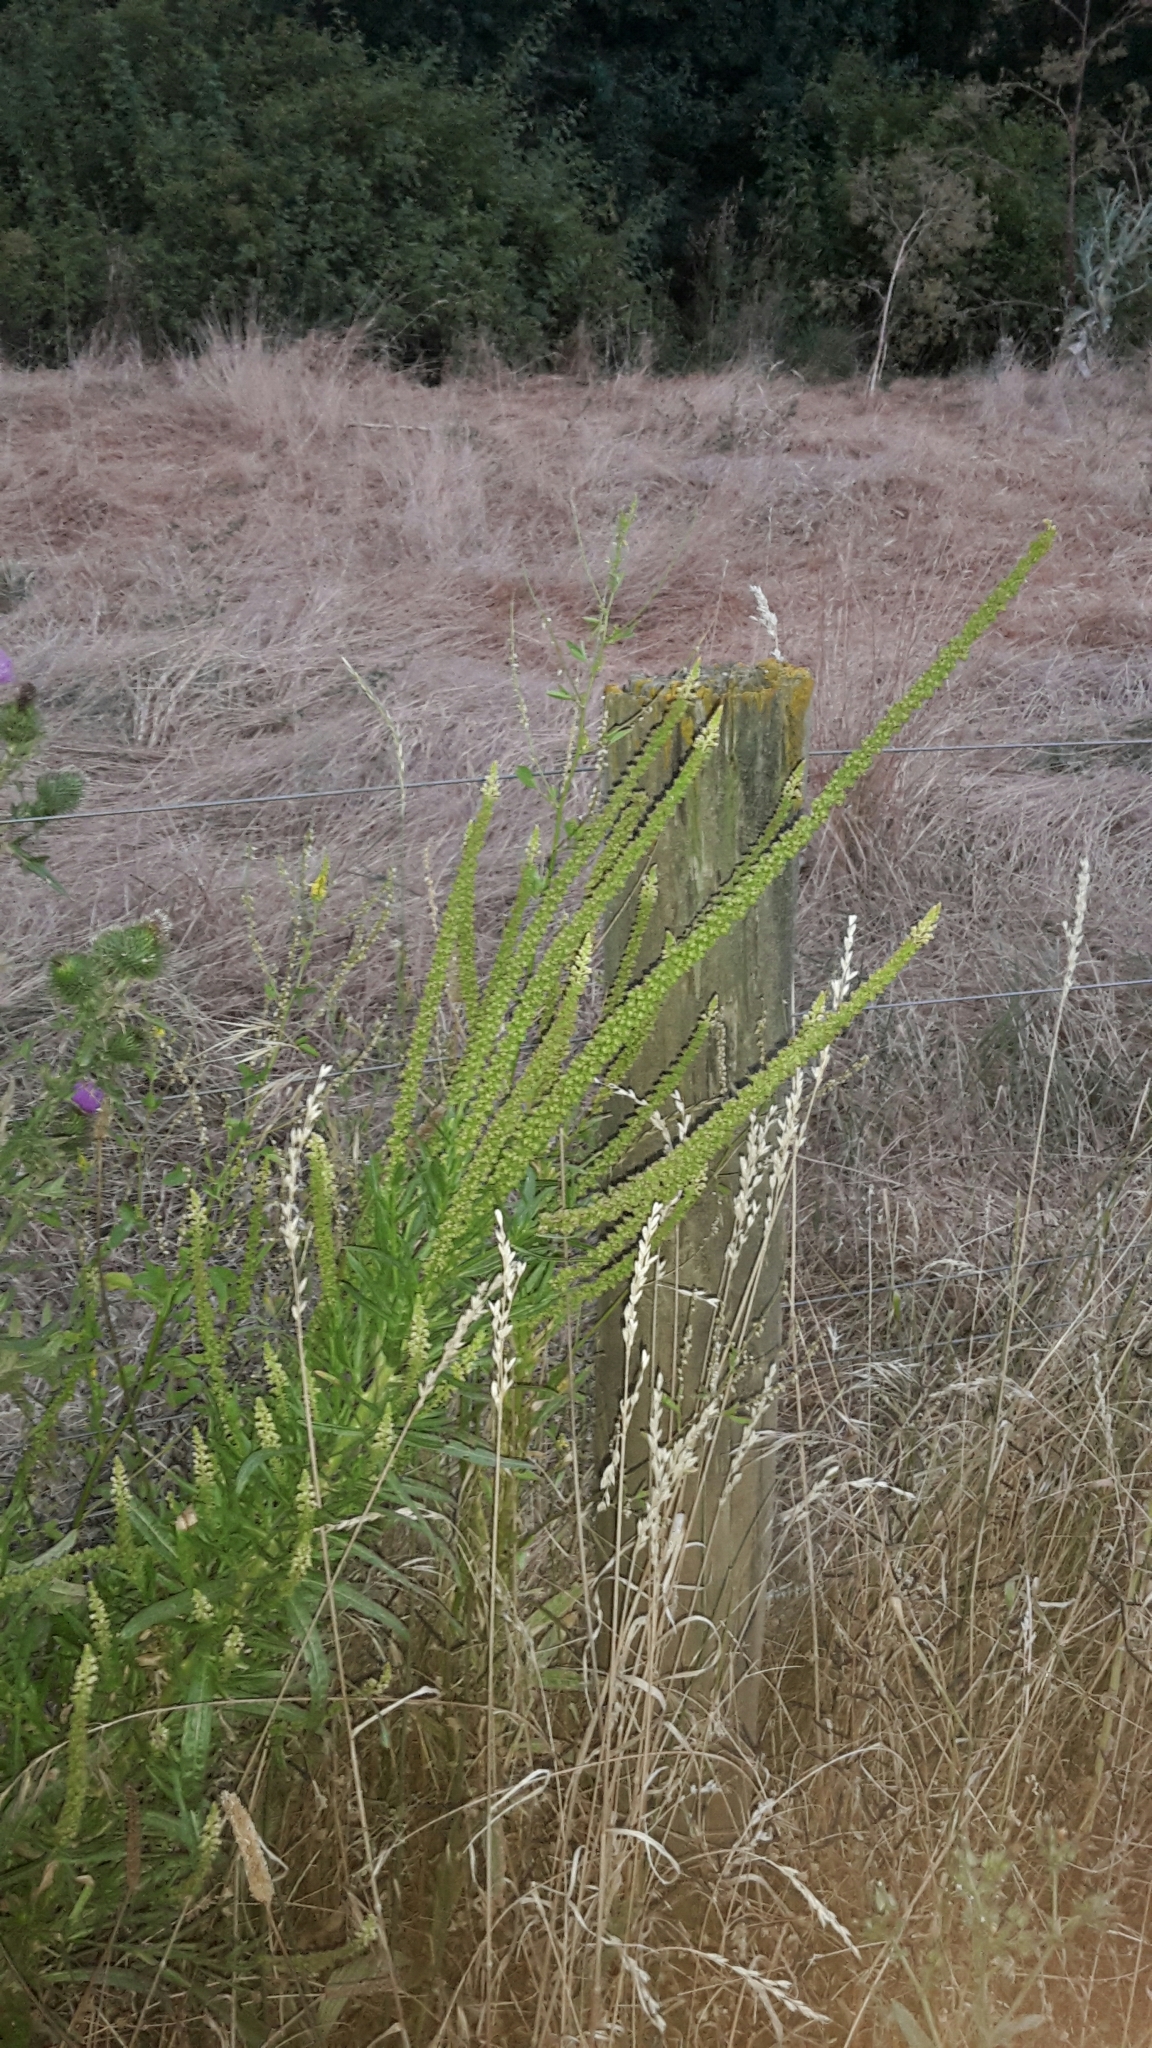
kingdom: Plantae
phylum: Tracheophyta
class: Magnoliopsida
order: Brassicales
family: Resedaceae
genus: Reseda
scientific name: Reseda luteola
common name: Weld
